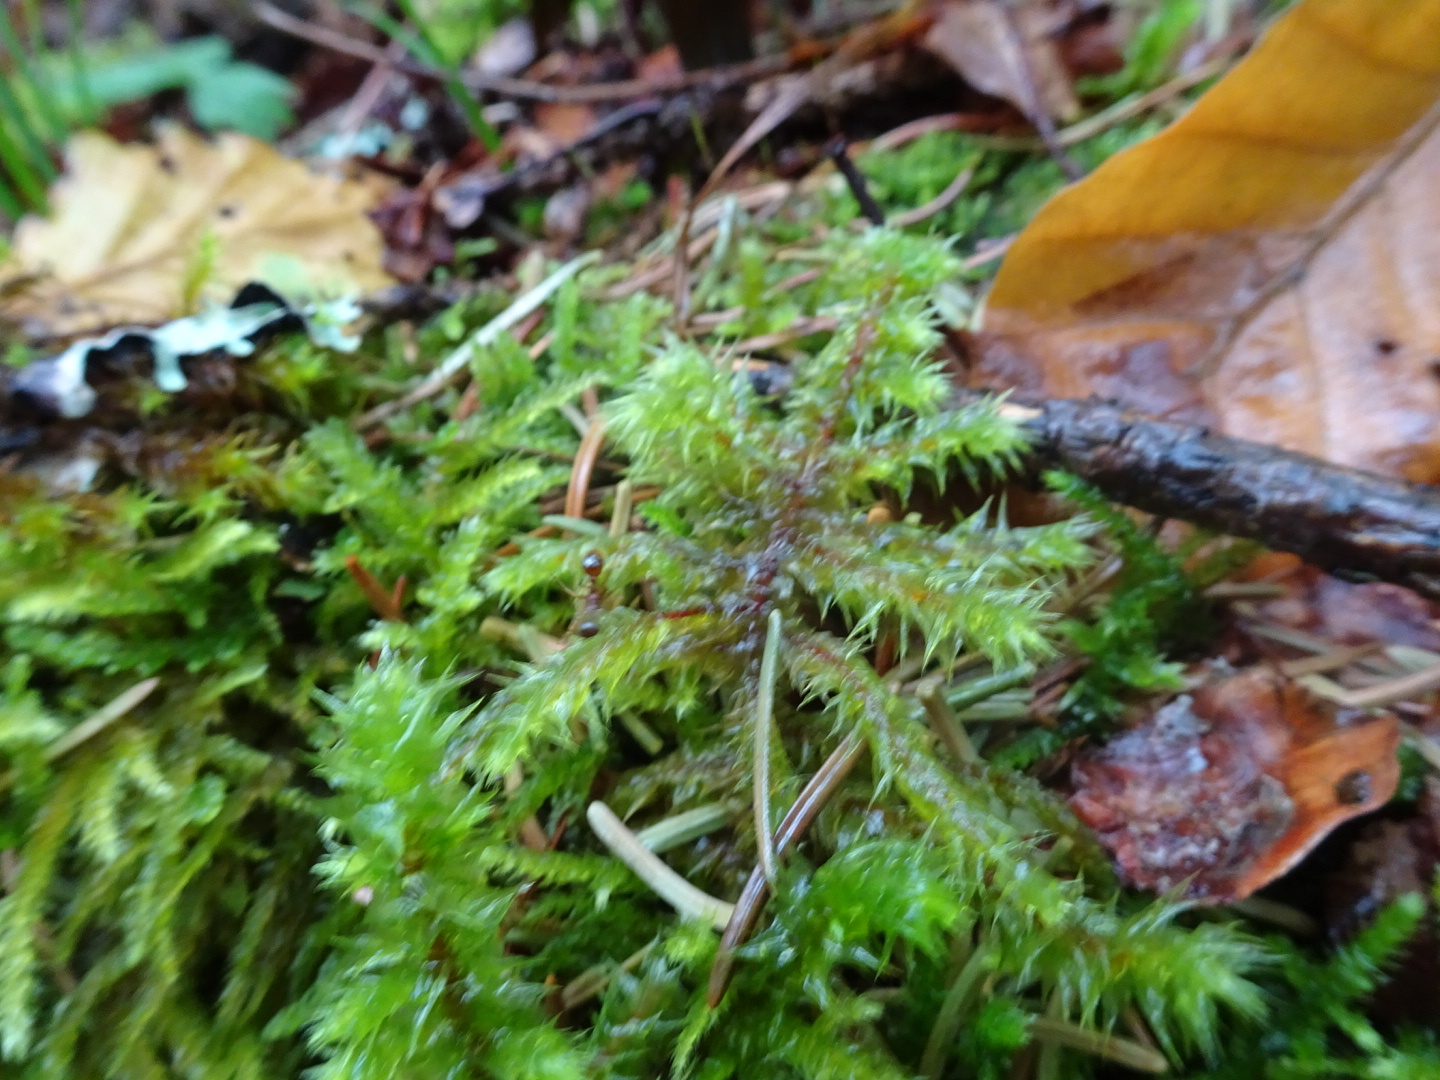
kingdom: Plantae
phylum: Bryophyta
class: Bryopsida
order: Hypnales
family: Hylocomiaceae
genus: Hylocomiadelphus
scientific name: Hylocomiadelphus triquetrus
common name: Rough goose neck moss
